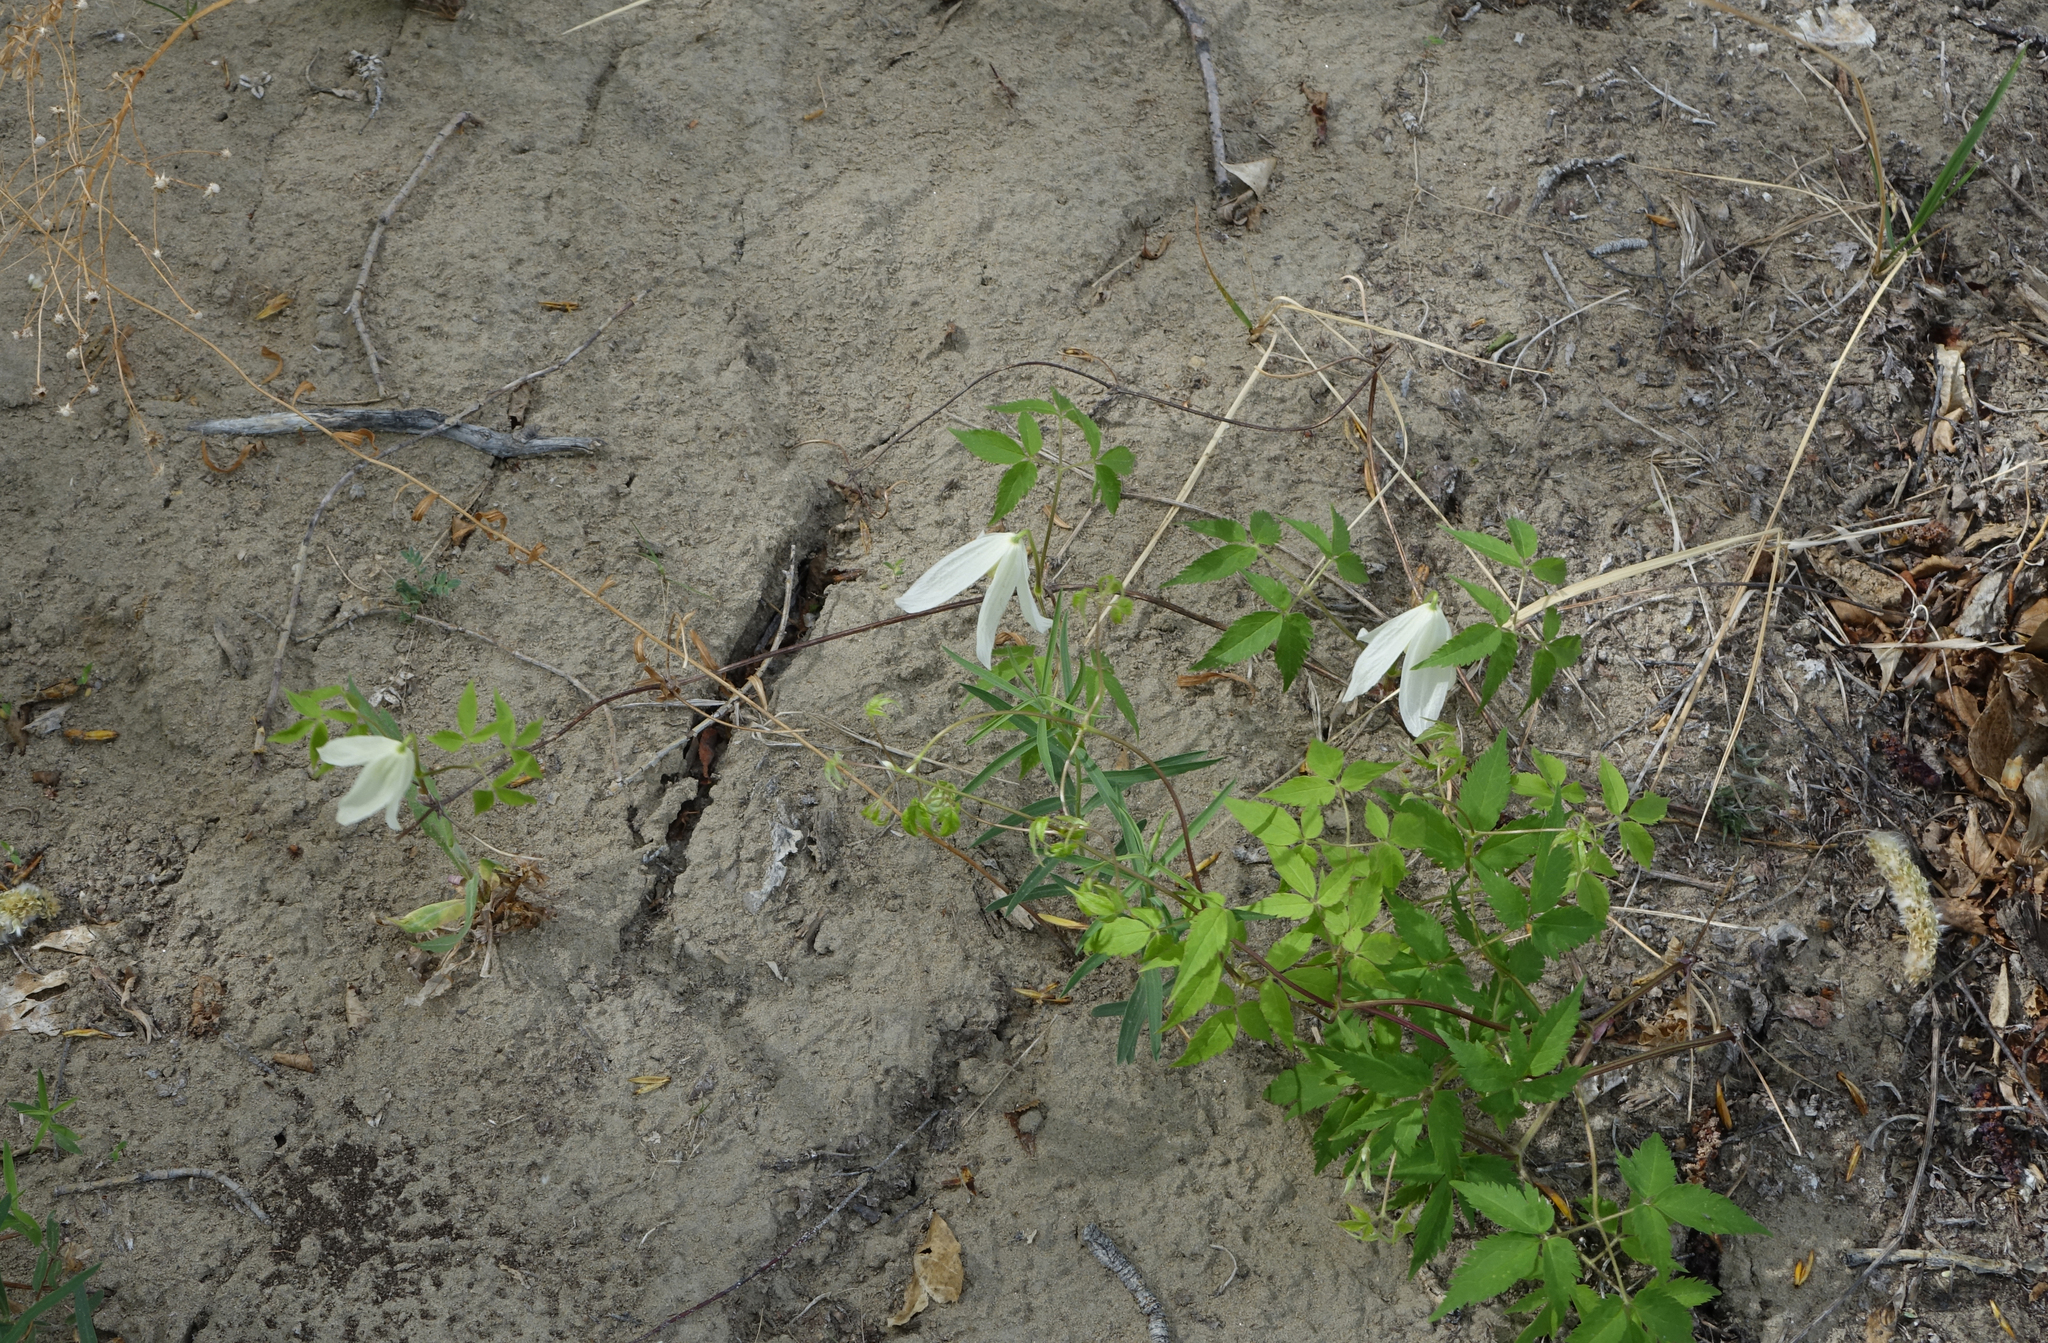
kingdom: Plantae
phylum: Tracheophyta
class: Magnoliopsida
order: Ranunculales
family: Ranunculaceae
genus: Clematis
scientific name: Clematis sibirica
